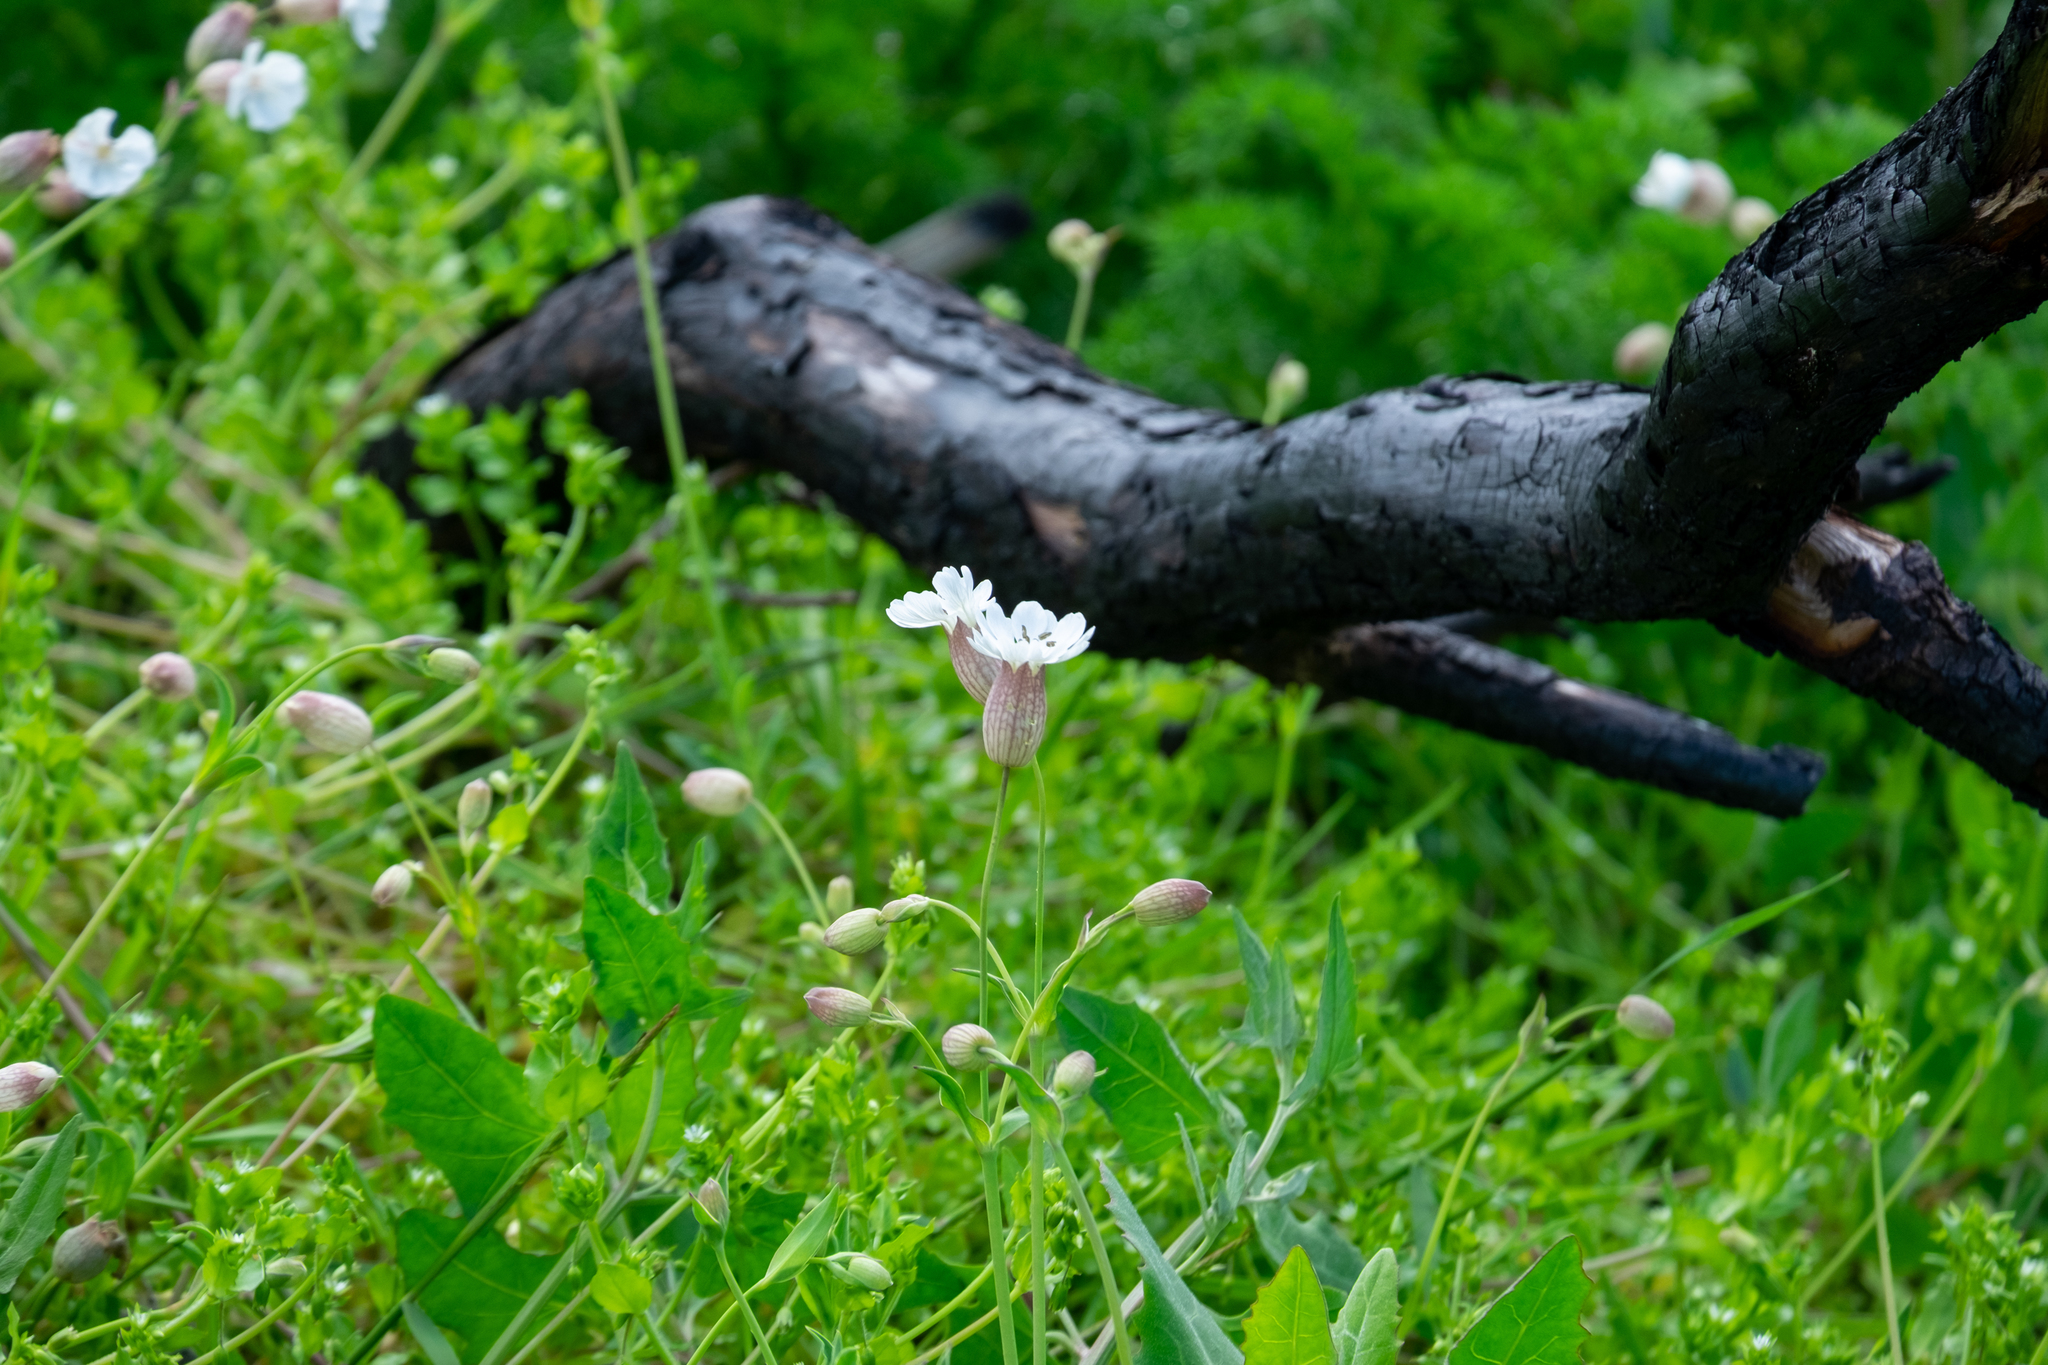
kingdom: Plantae
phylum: Tracheophyta
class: Magnoliopsida
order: Caryophyllales
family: Caryophyllaceae
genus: Silene
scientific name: Silene uniflora
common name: Sea campion
